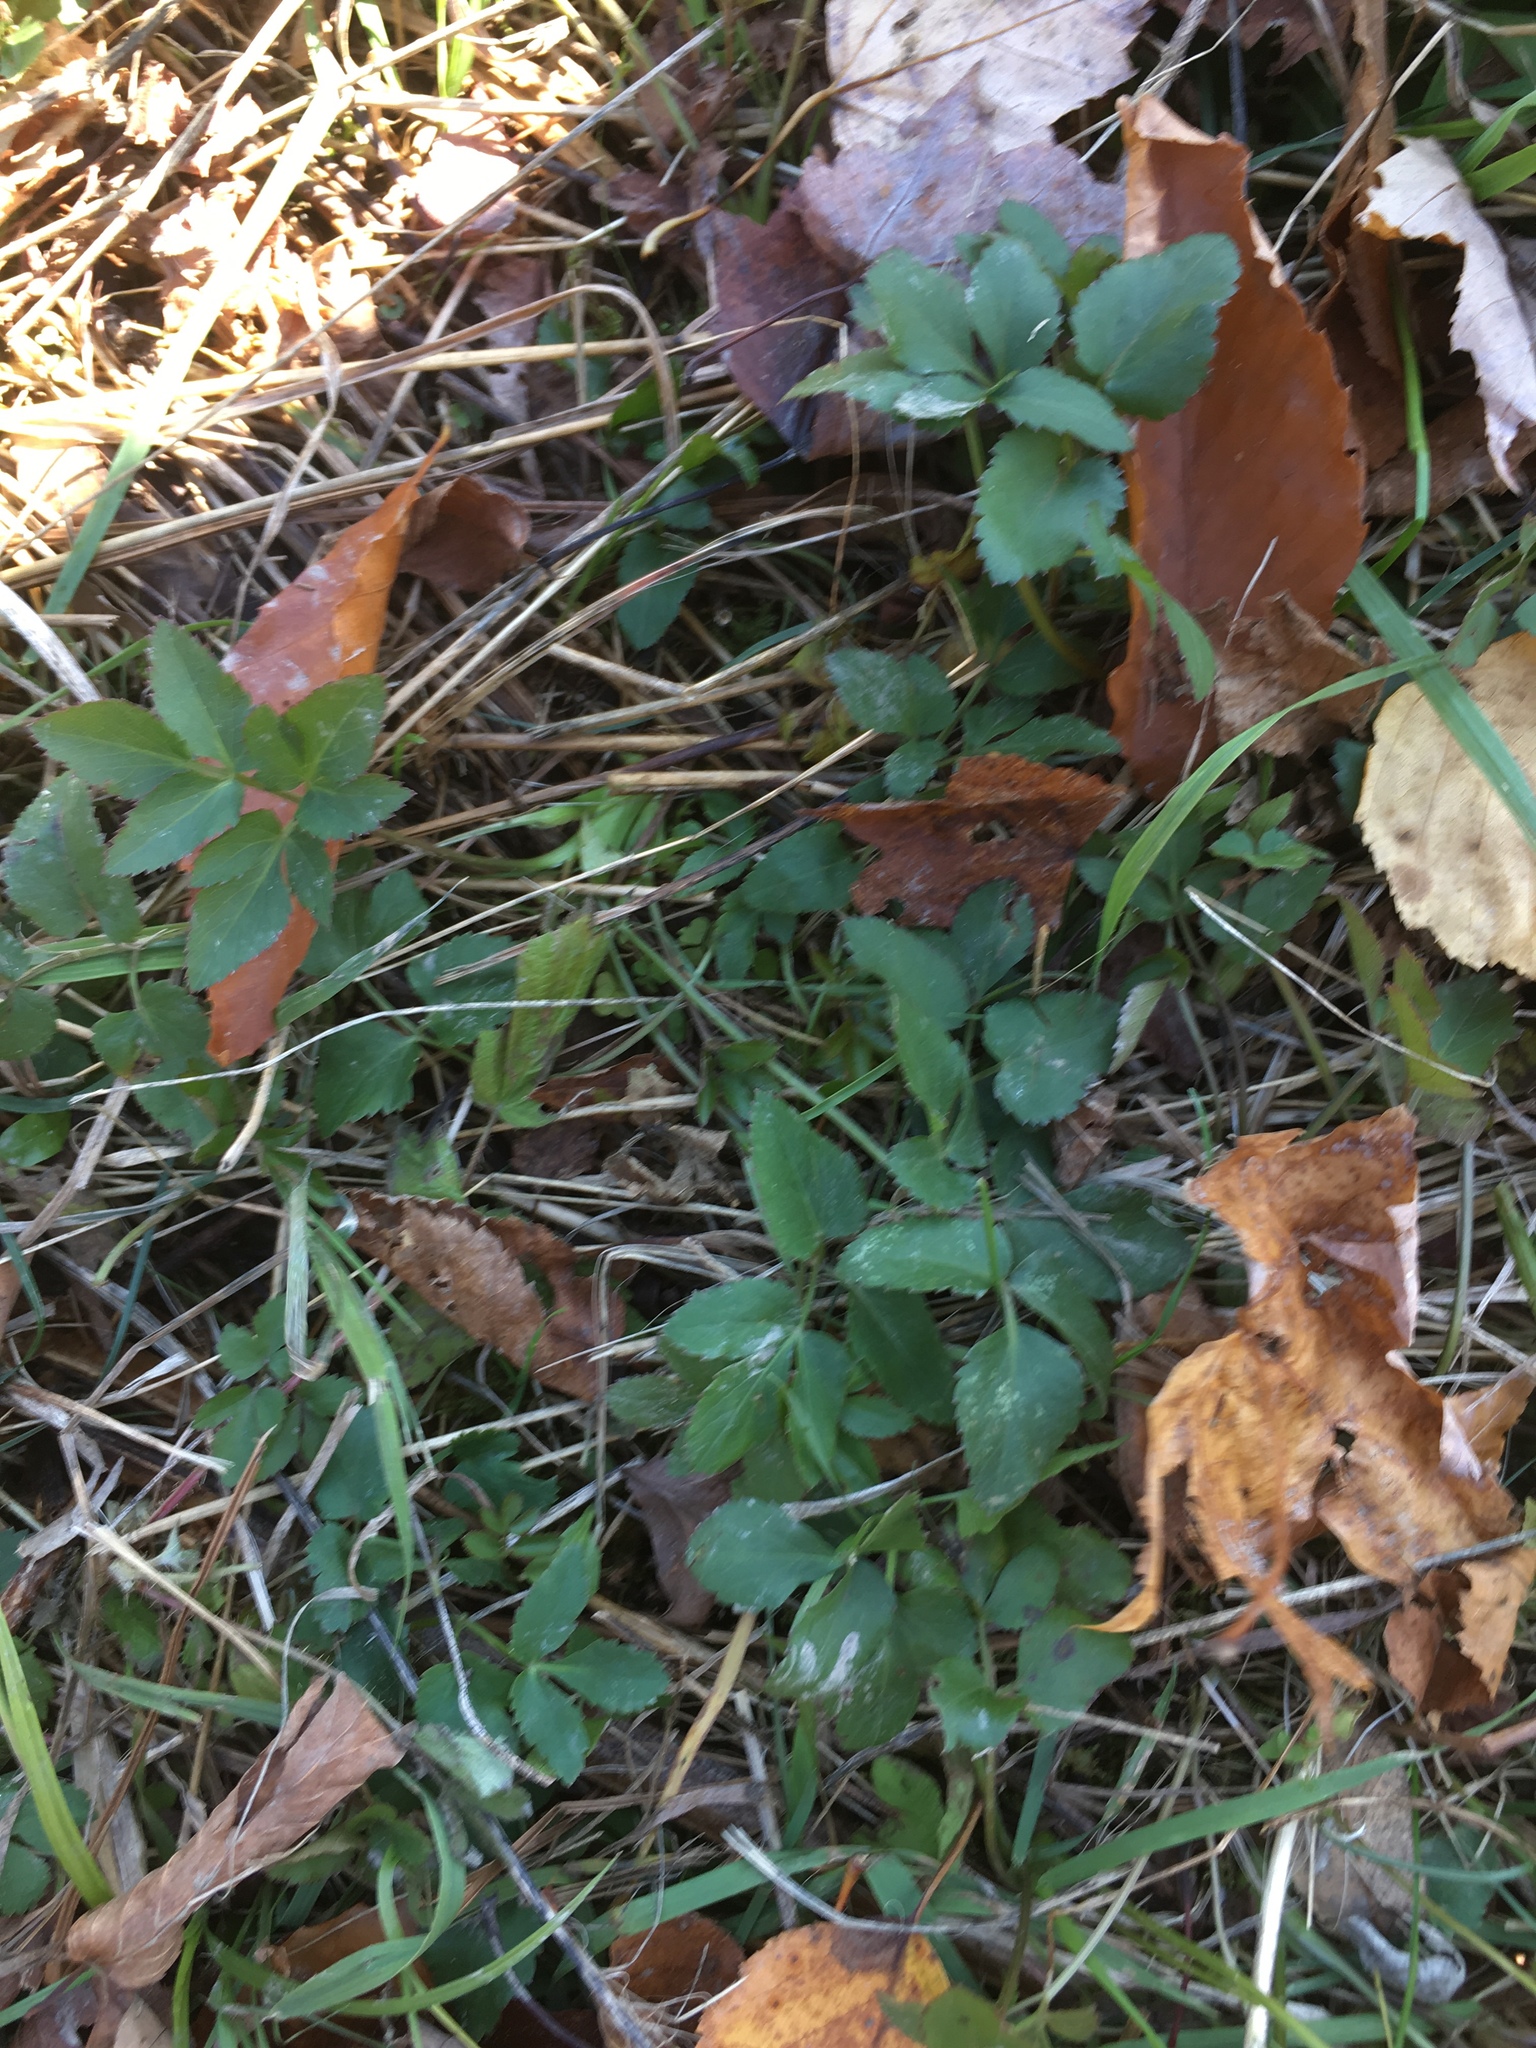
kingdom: Plantae
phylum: Tracheophyta
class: Magnoliopsida
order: Apiales
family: Apiaceae
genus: Aegopodium
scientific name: Aegopodium podagraria
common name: Ground-elder
